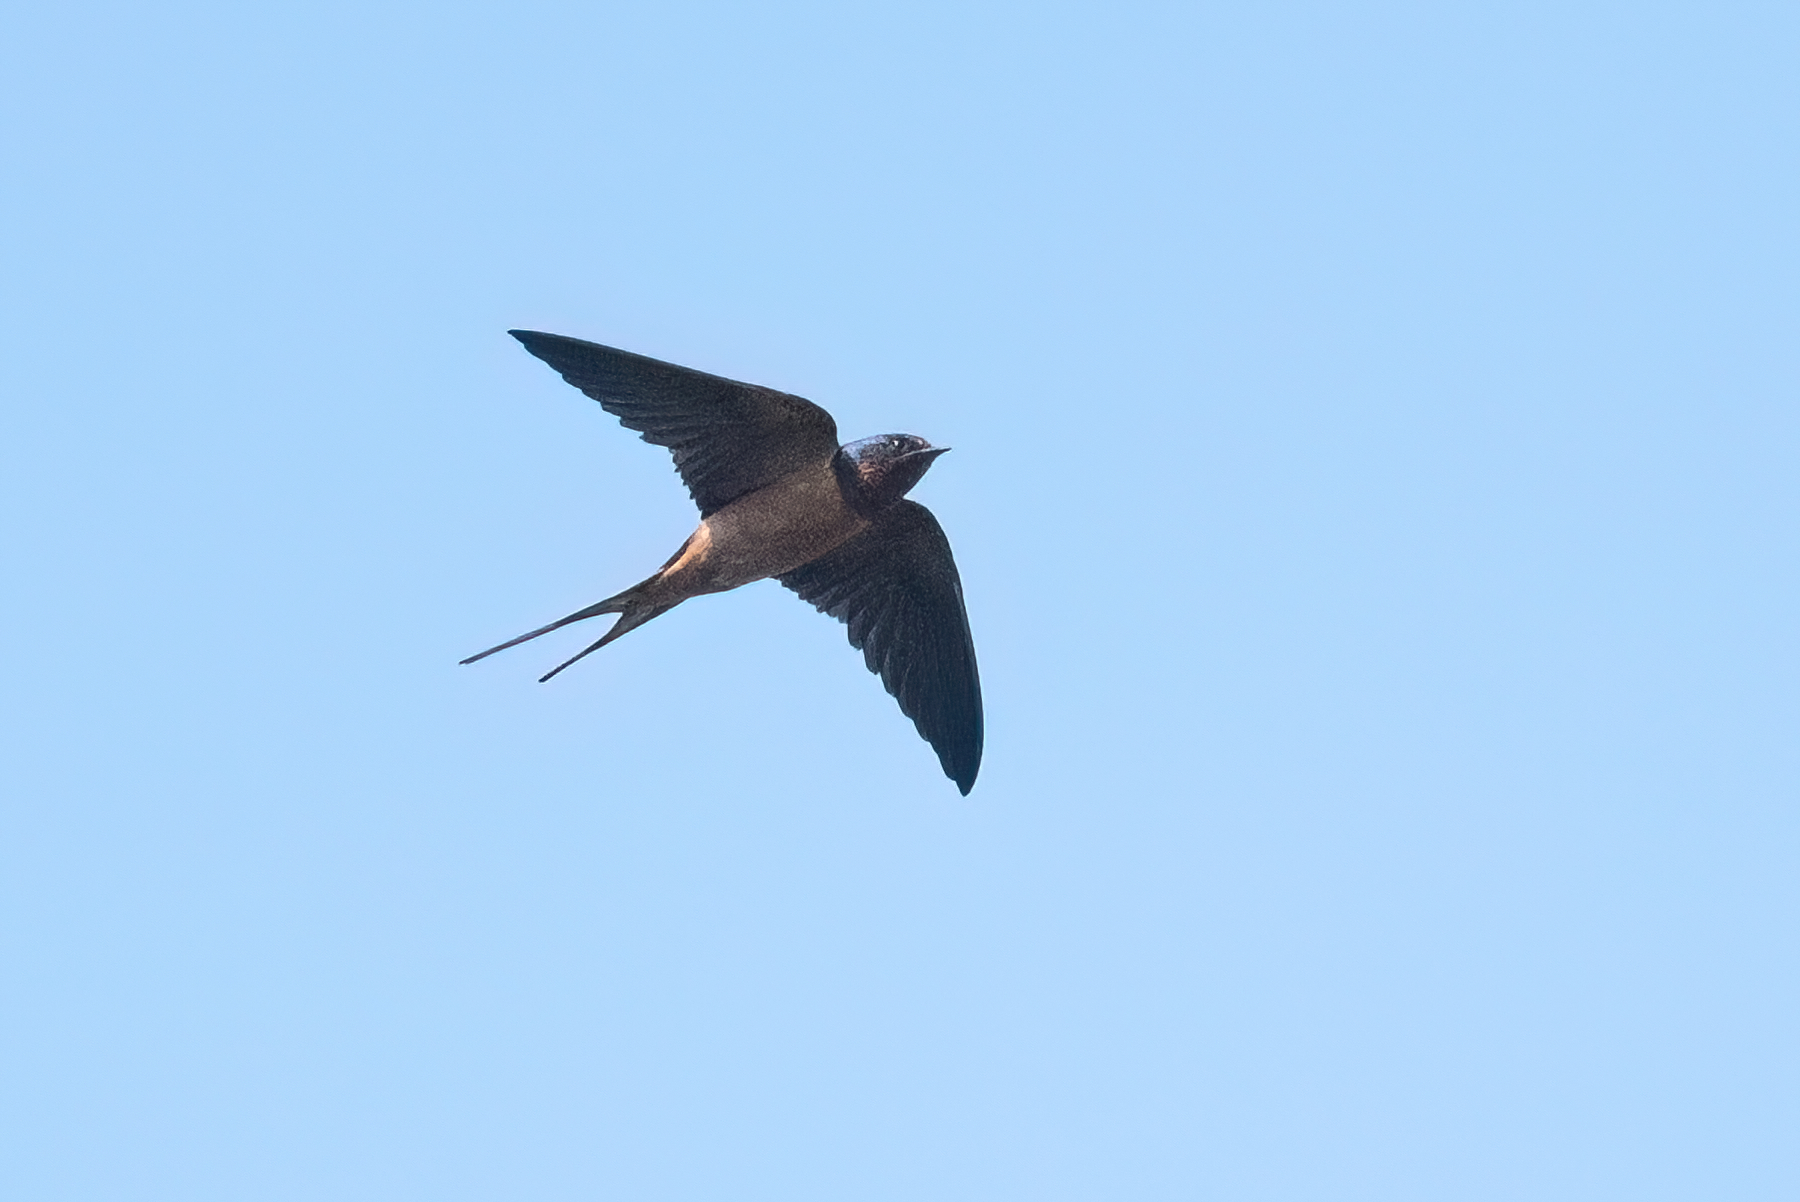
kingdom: Animalia
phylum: Chordata
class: Aves
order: Passeriformes
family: Hirundinidae
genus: Hirundo
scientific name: Hirundo rustica
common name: Barn swallow
